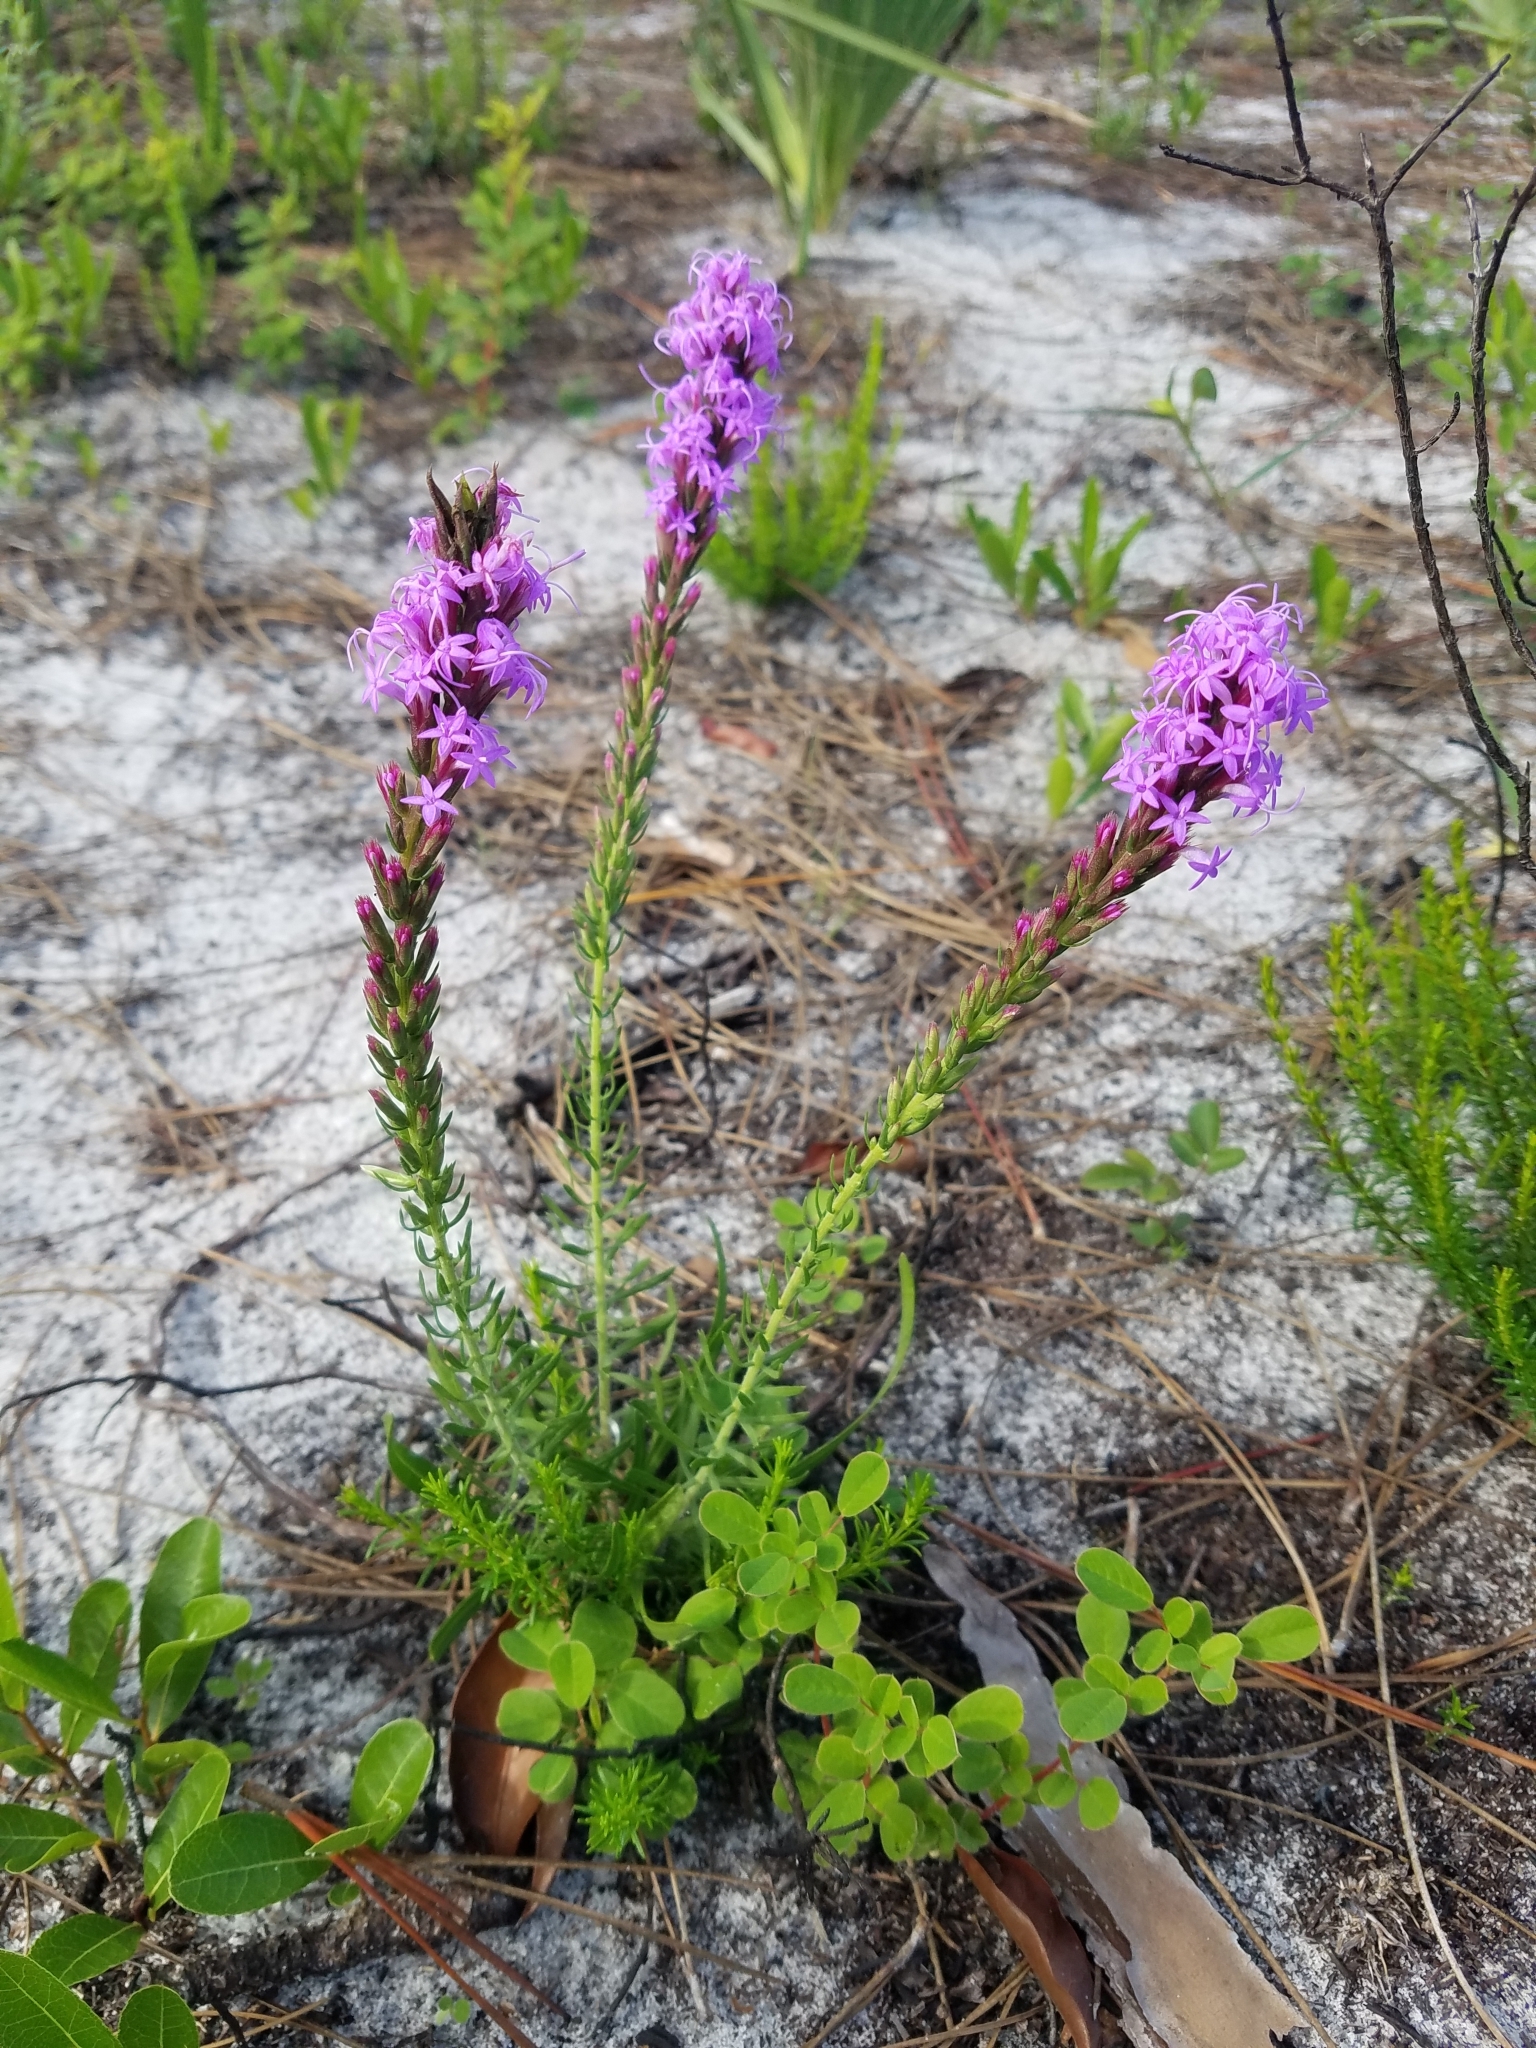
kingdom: Plantae
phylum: Tracheophyta
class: Magnoliopsida
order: Asterales
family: Asteraceae
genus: Liatris
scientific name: Liatris chapmanii
